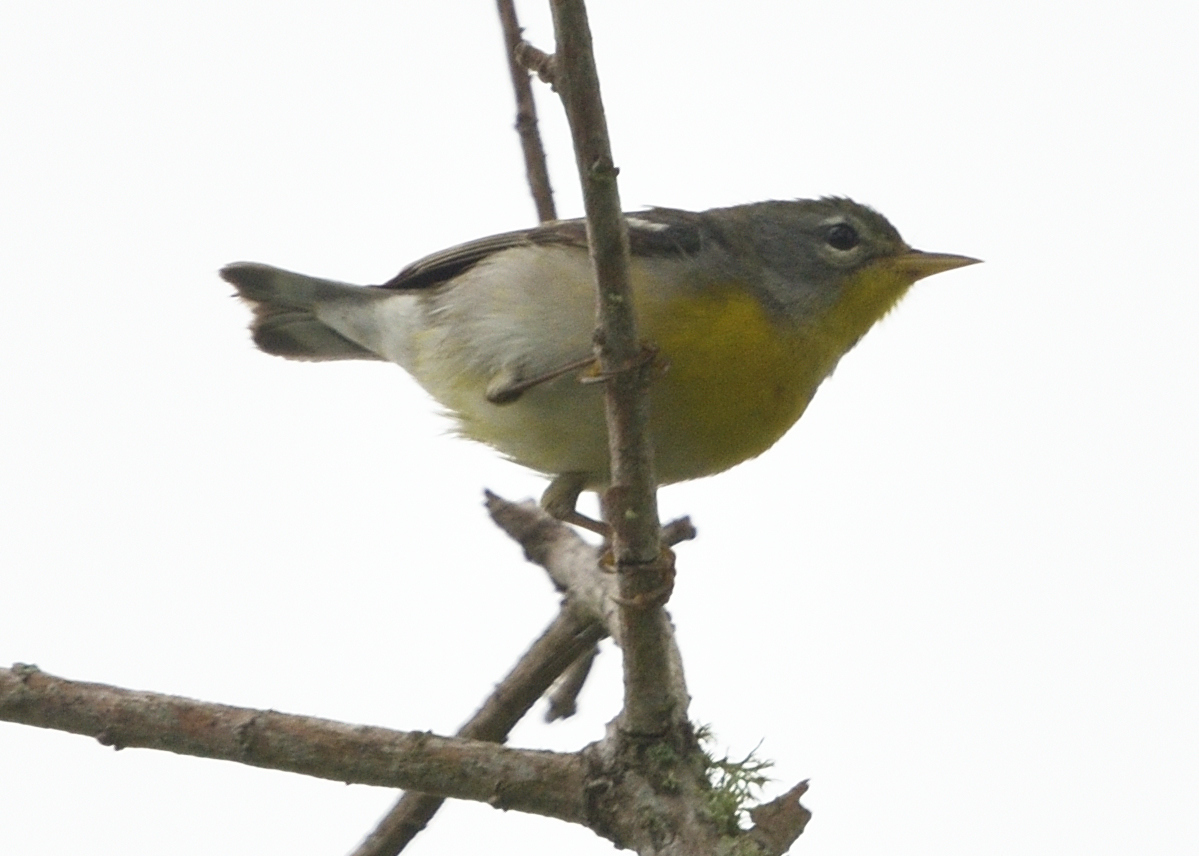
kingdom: Animalia
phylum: Chordata
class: Aves
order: Passeriformes
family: Parulidae
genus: Setophaga
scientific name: Setophaga americana
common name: Northern parula
